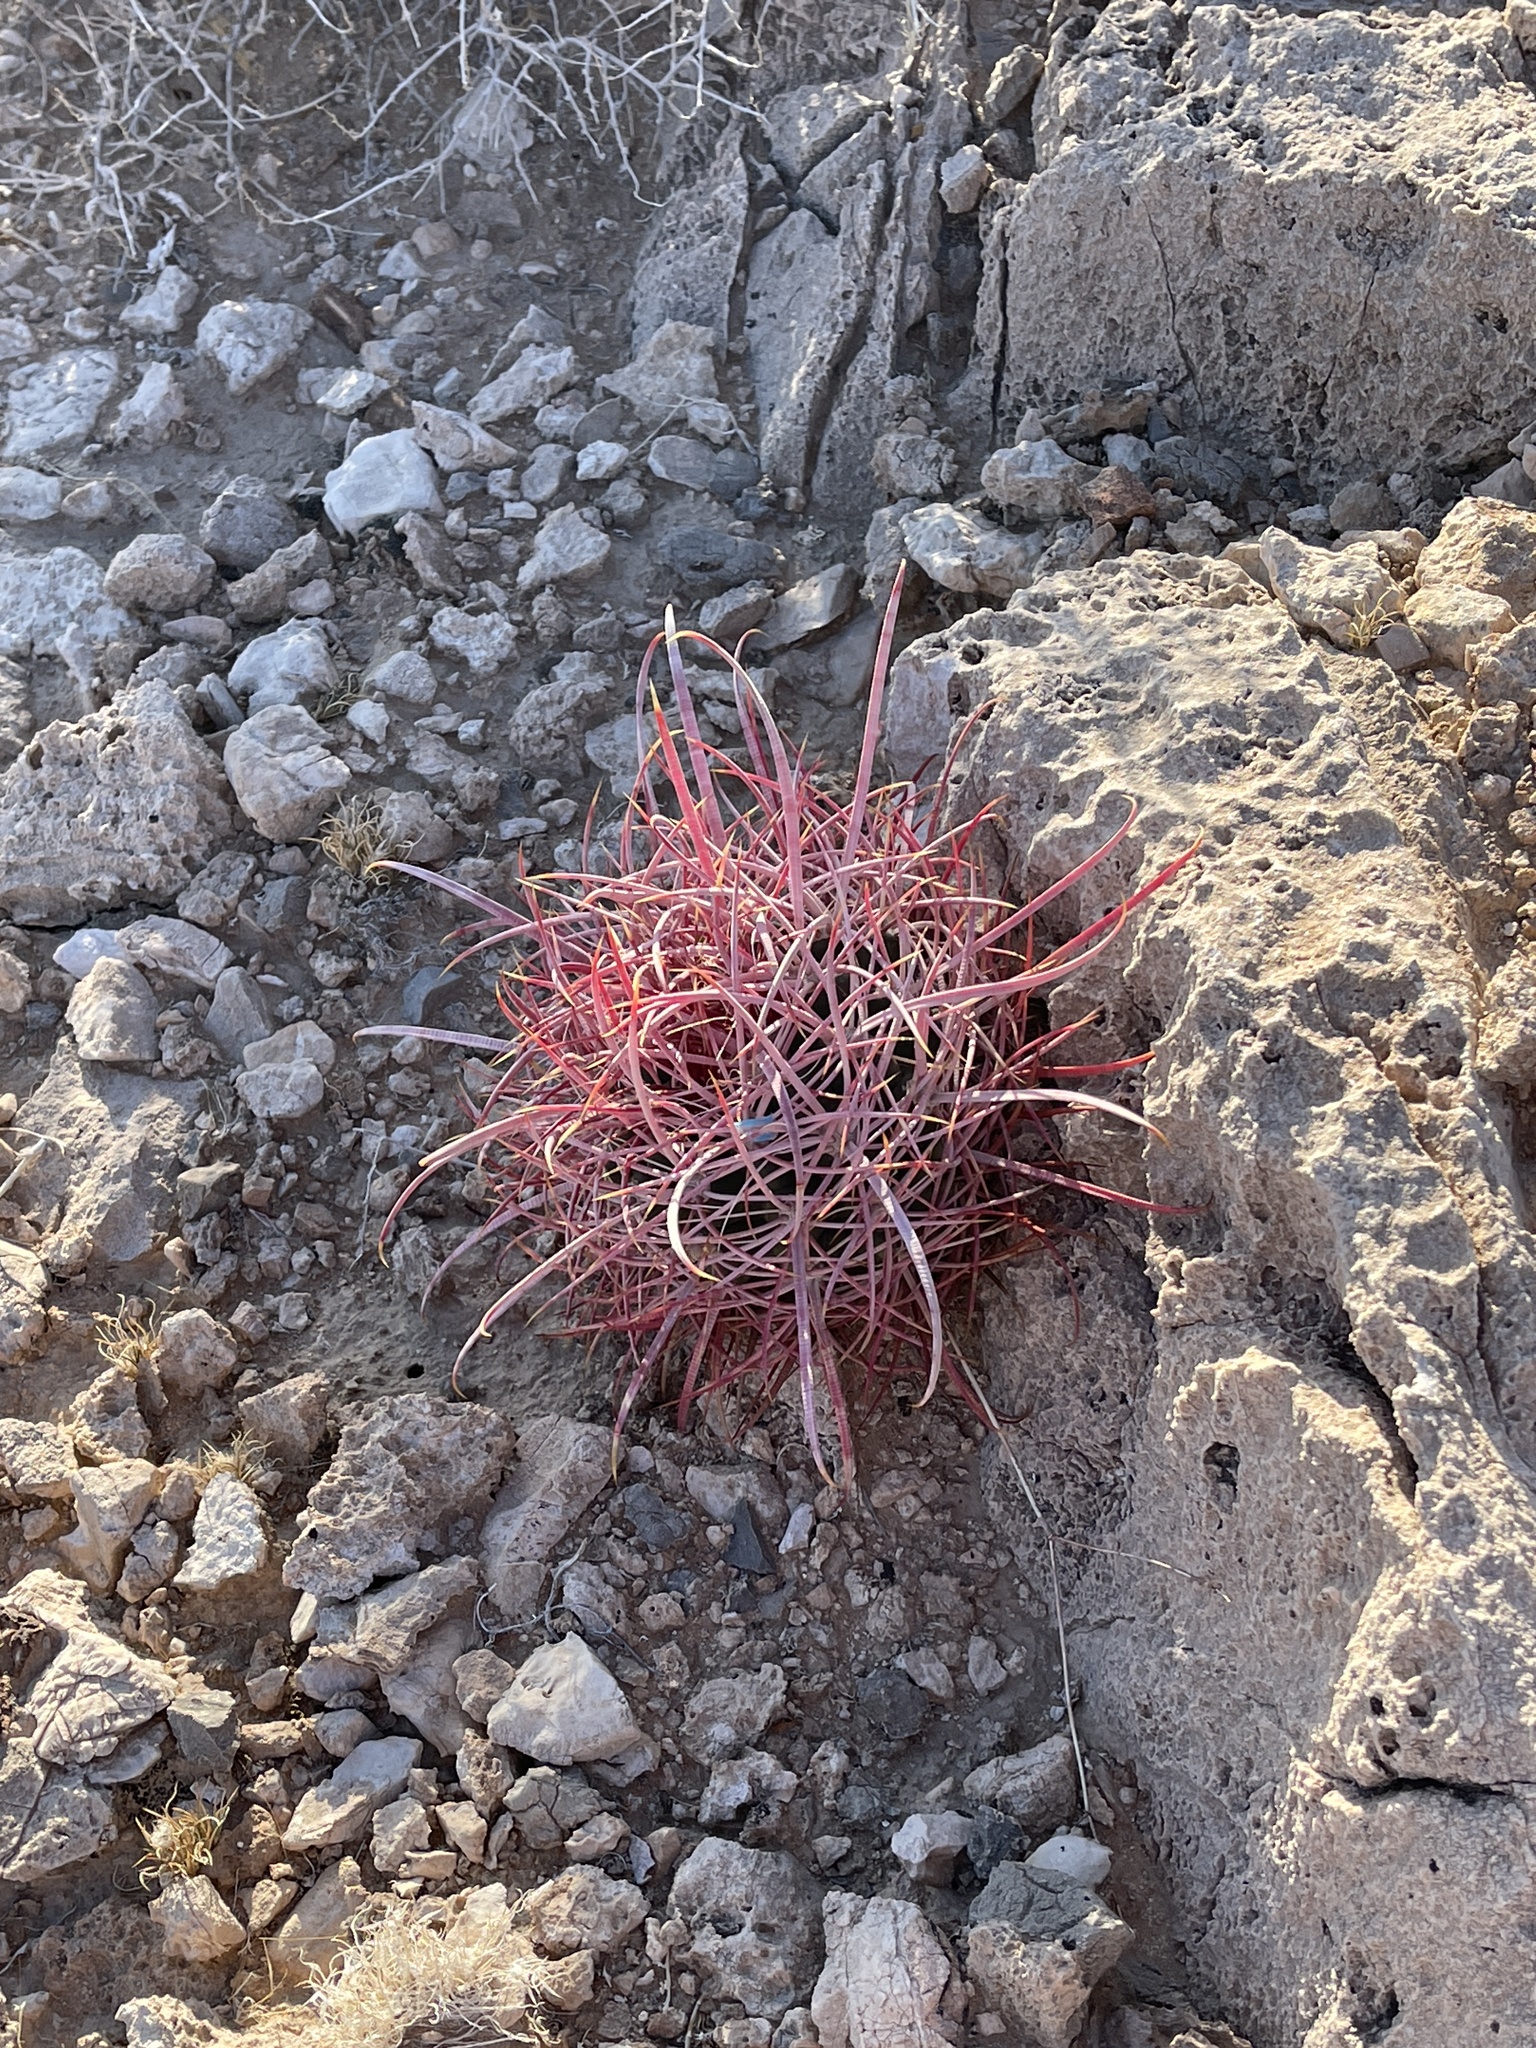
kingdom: Plantae
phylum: Tracheophyta
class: Magnoliopsida
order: Caryophyllales
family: Cactaceae
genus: Ferocactus
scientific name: Ferocactus cylindraceus
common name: California barrel cactus
